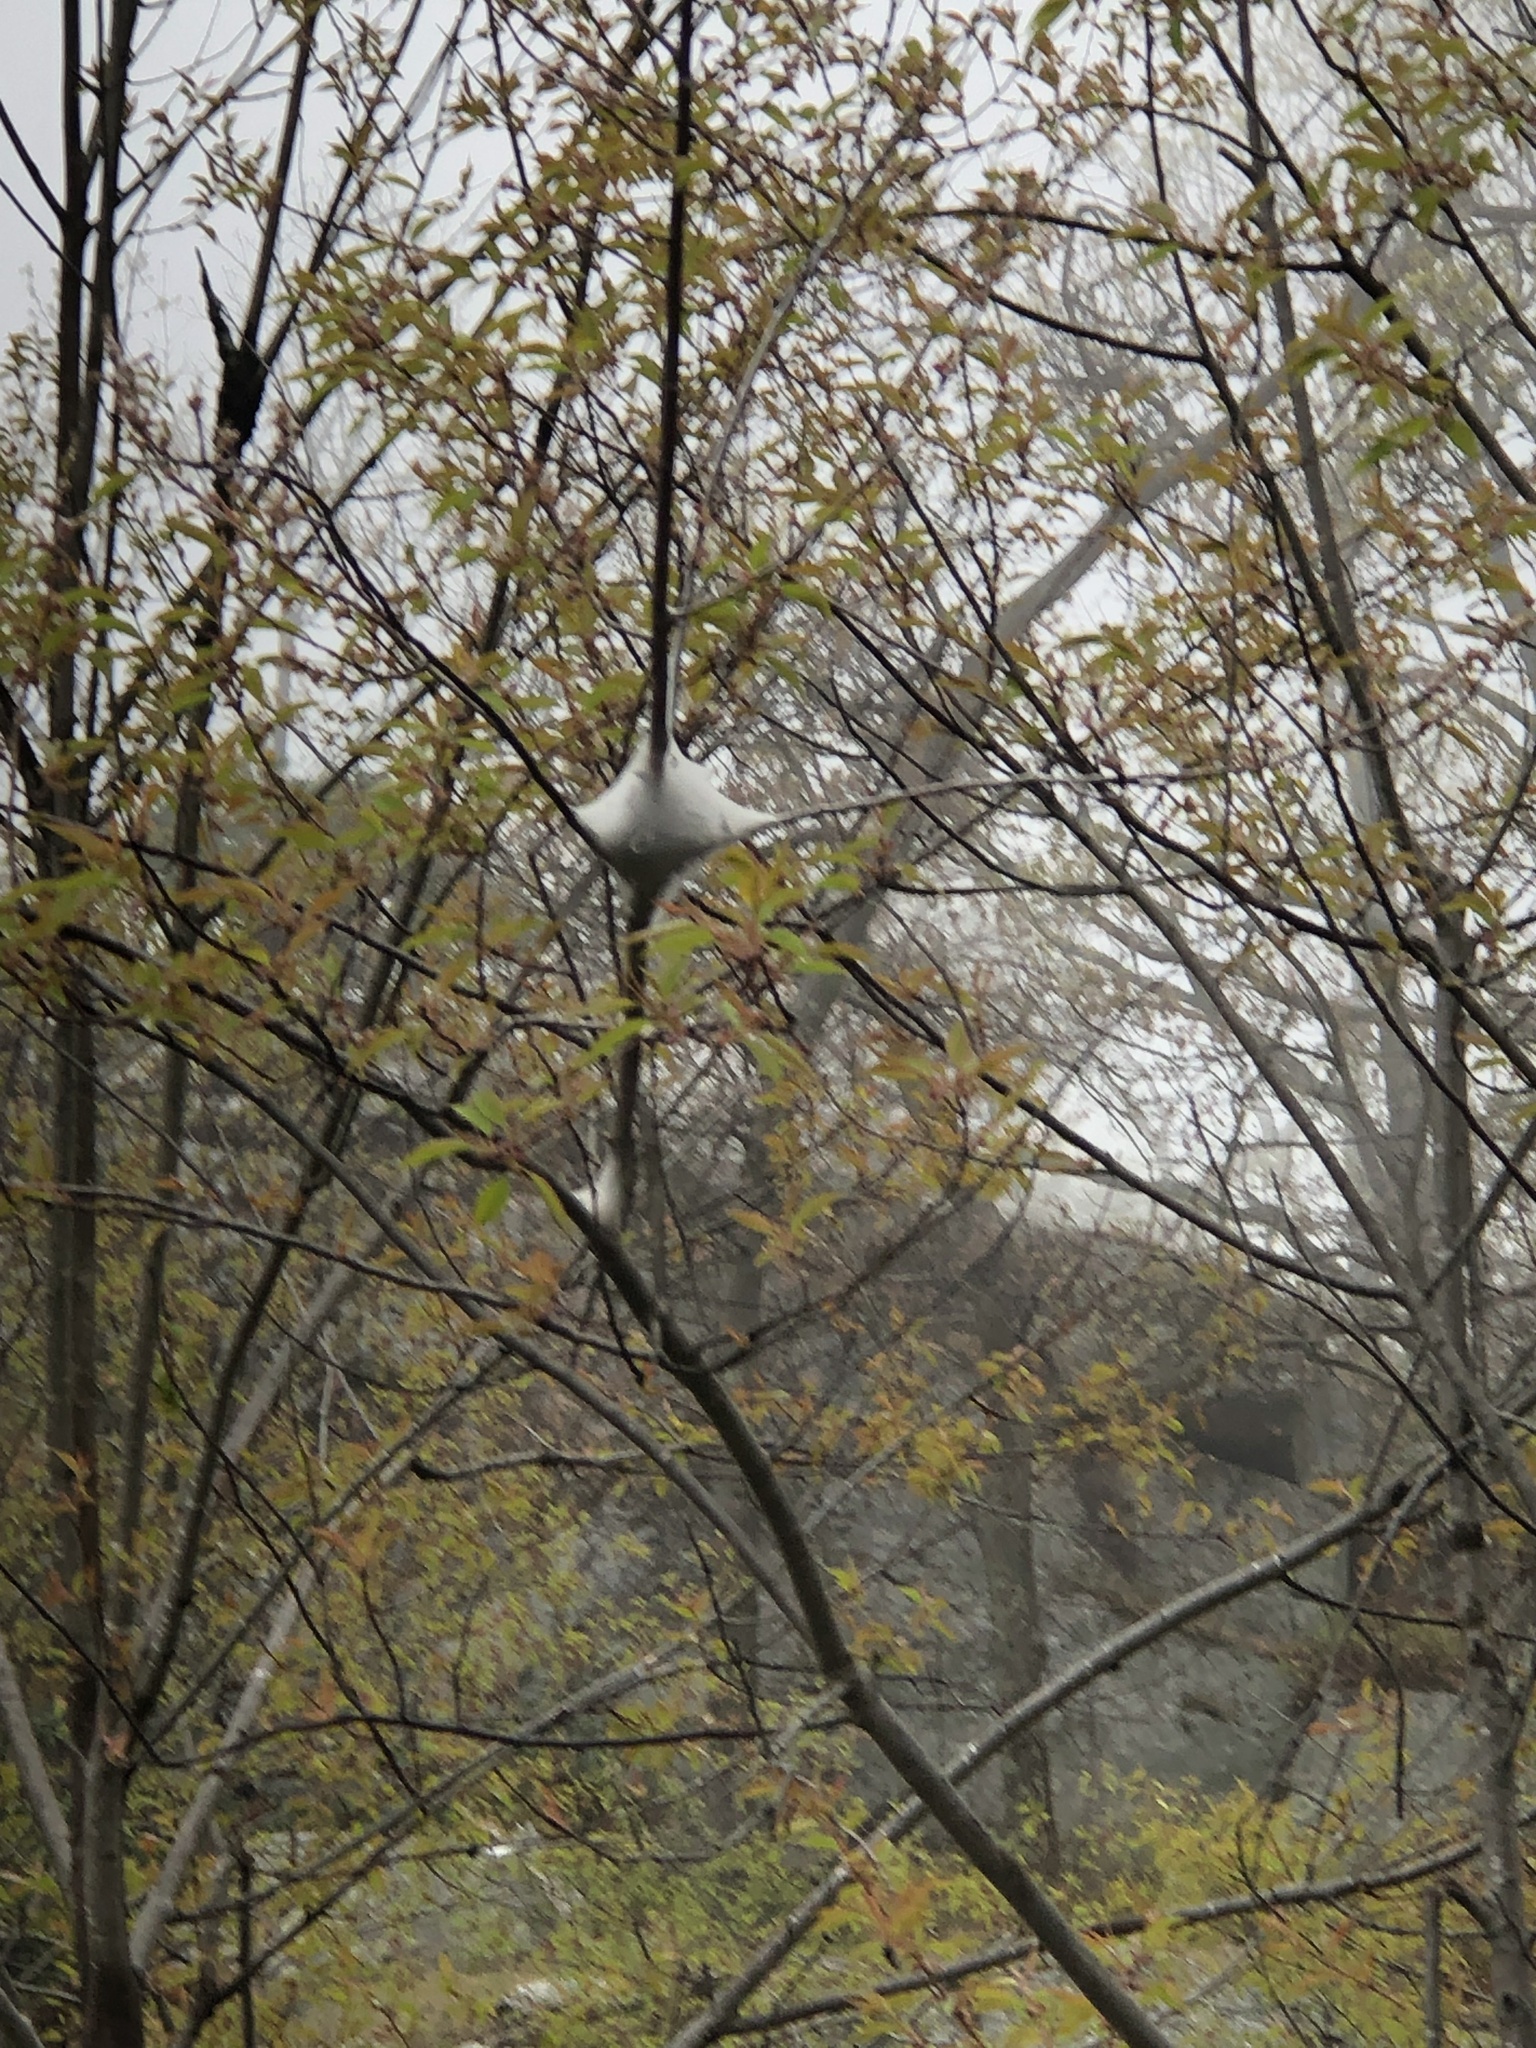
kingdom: Animalia
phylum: Arthropoda
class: Insecta
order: Lepidoptera
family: Lasiocampidae
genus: Malacosoma
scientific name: Malacosoma americana
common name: Eastern tent caterpillar moth
